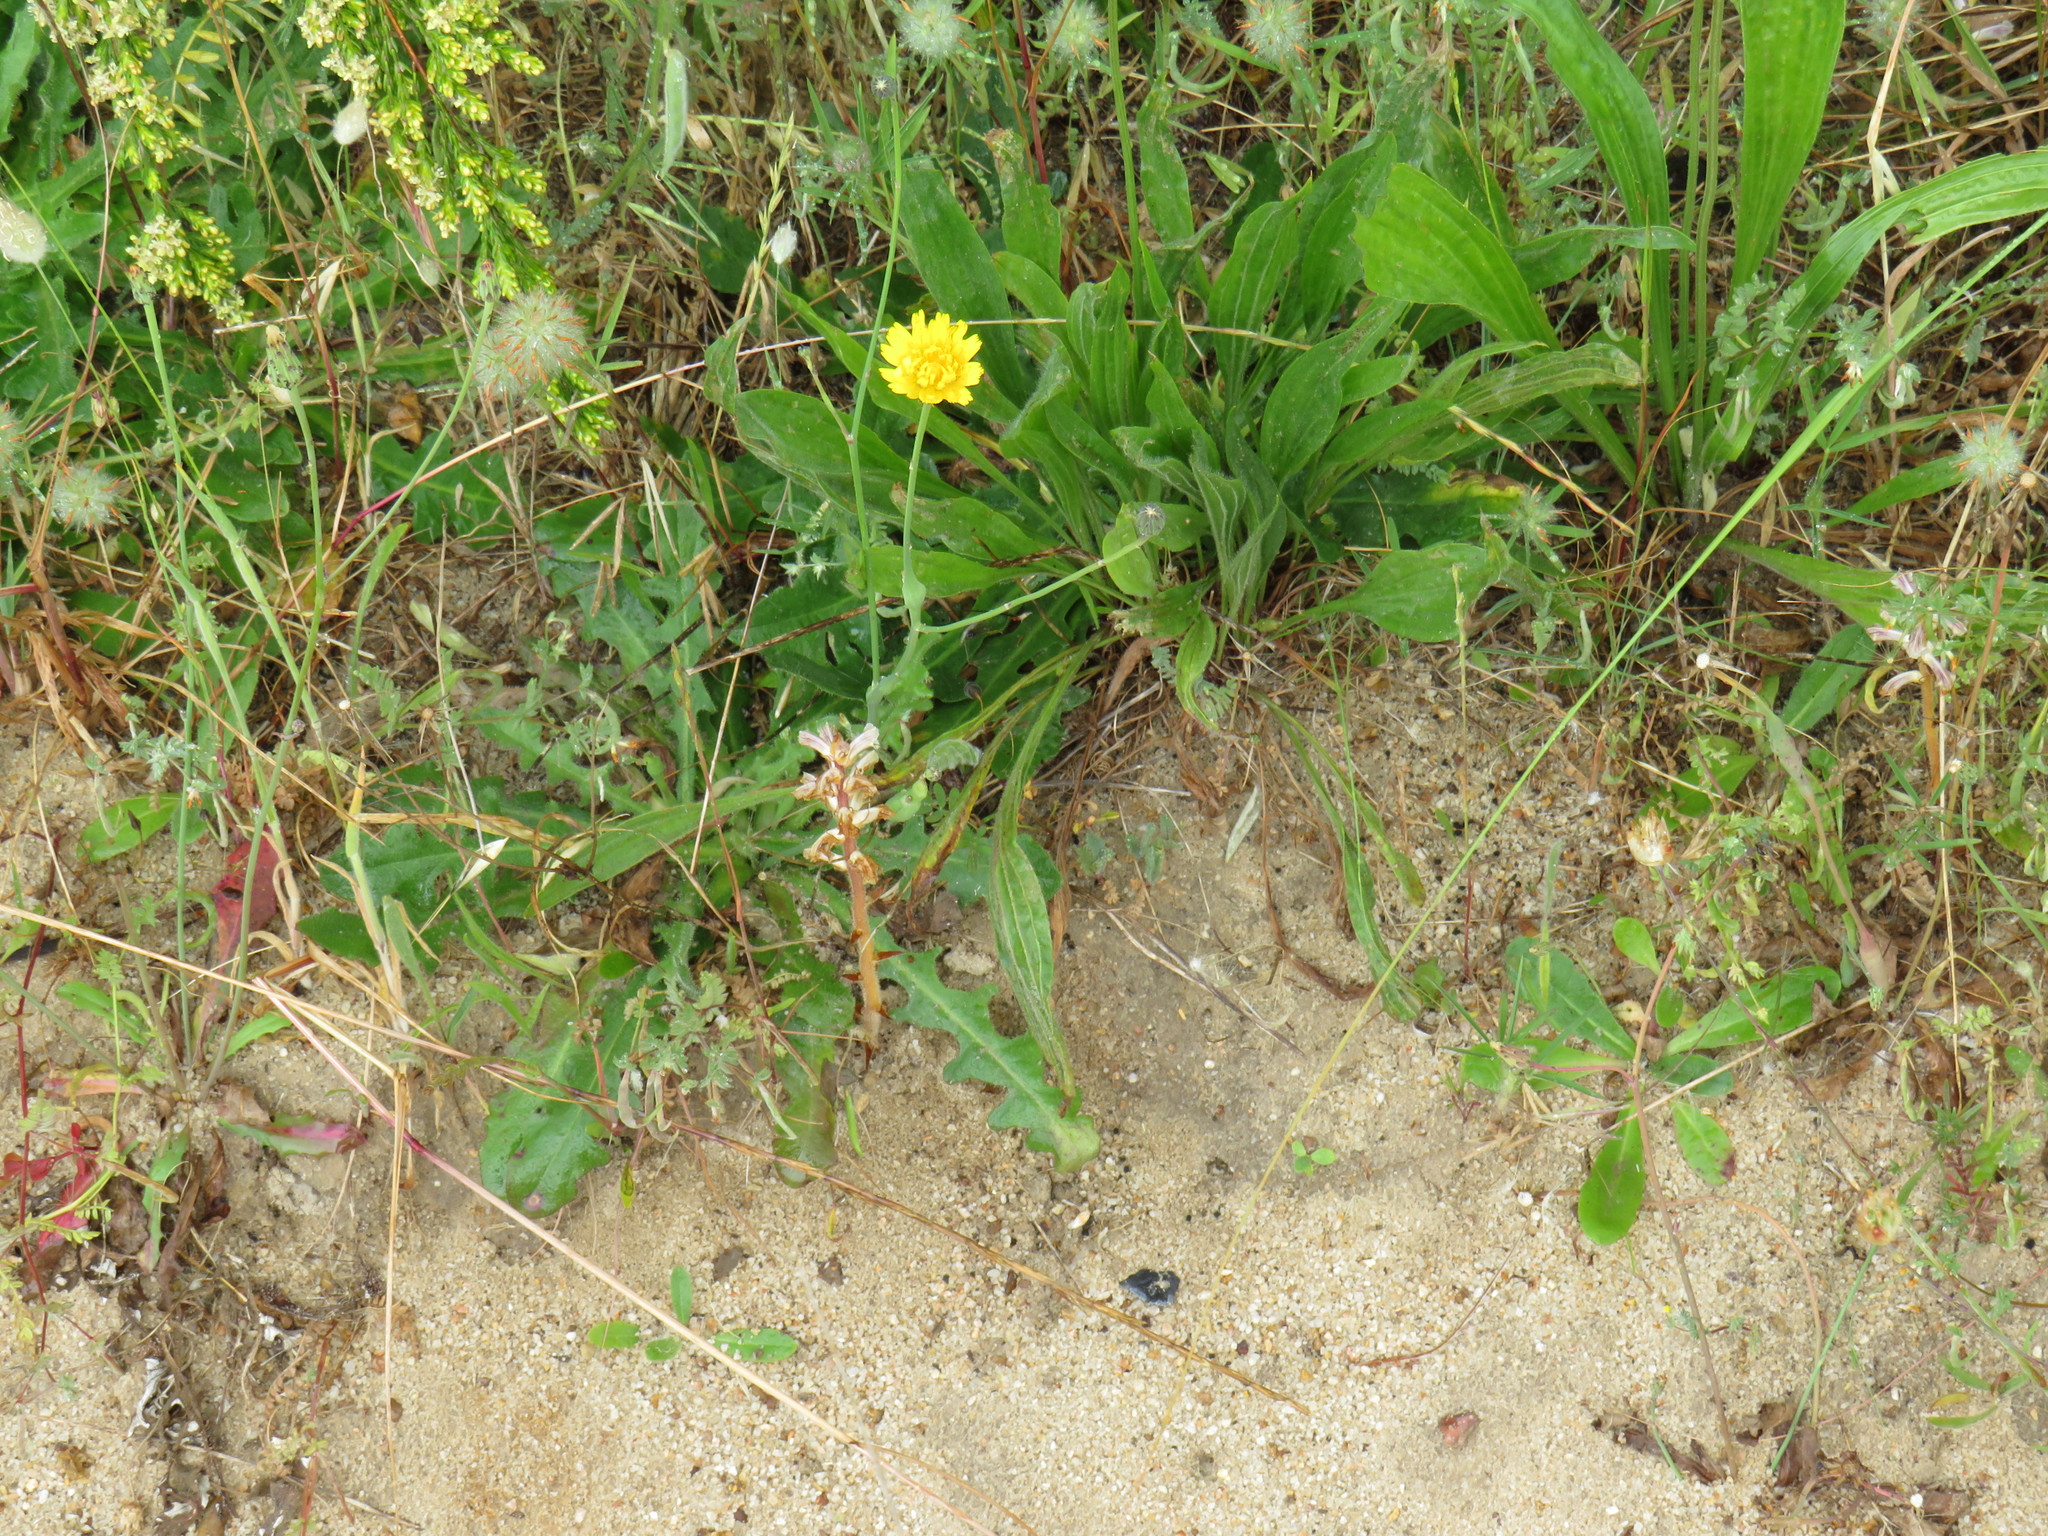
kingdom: Plantae
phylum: Tracheophyta
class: Magnoliopsida
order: Asterales
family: Asteraceae
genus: Hypochaeris
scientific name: Hypochaeris radicata
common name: Flatweed
